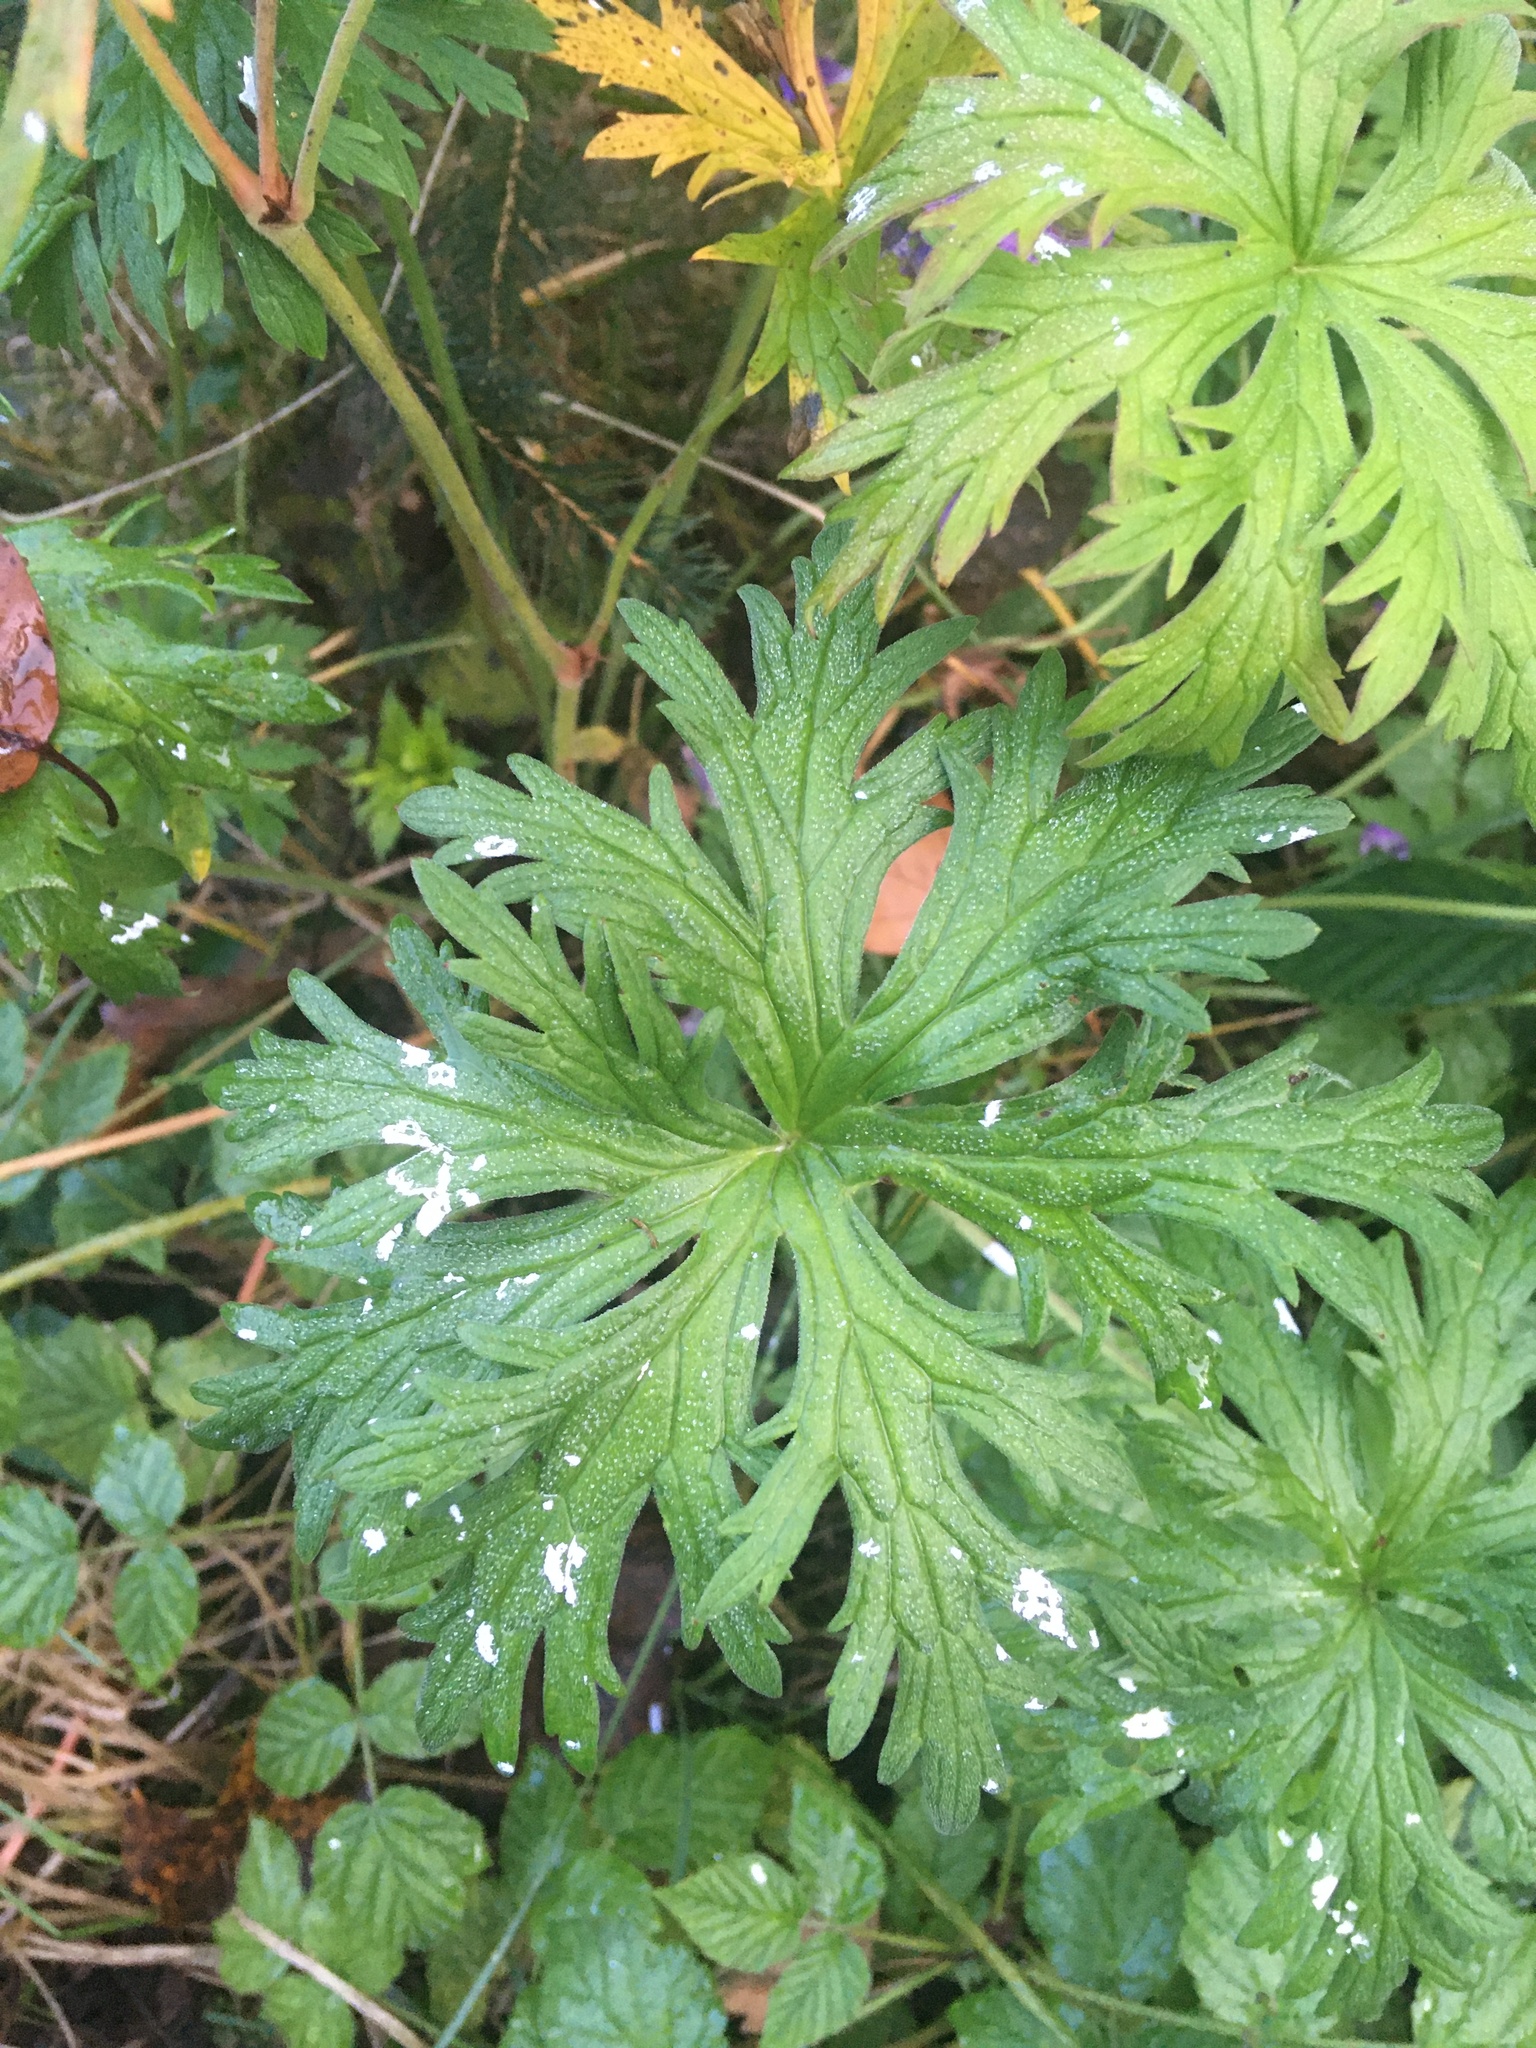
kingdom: Plantae
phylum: Tracheophyta
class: Magnoliopsida
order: Geraniales
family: Geraniaceae
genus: Geranium
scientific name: Geranium pratense
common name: Meadow crane's-bill
